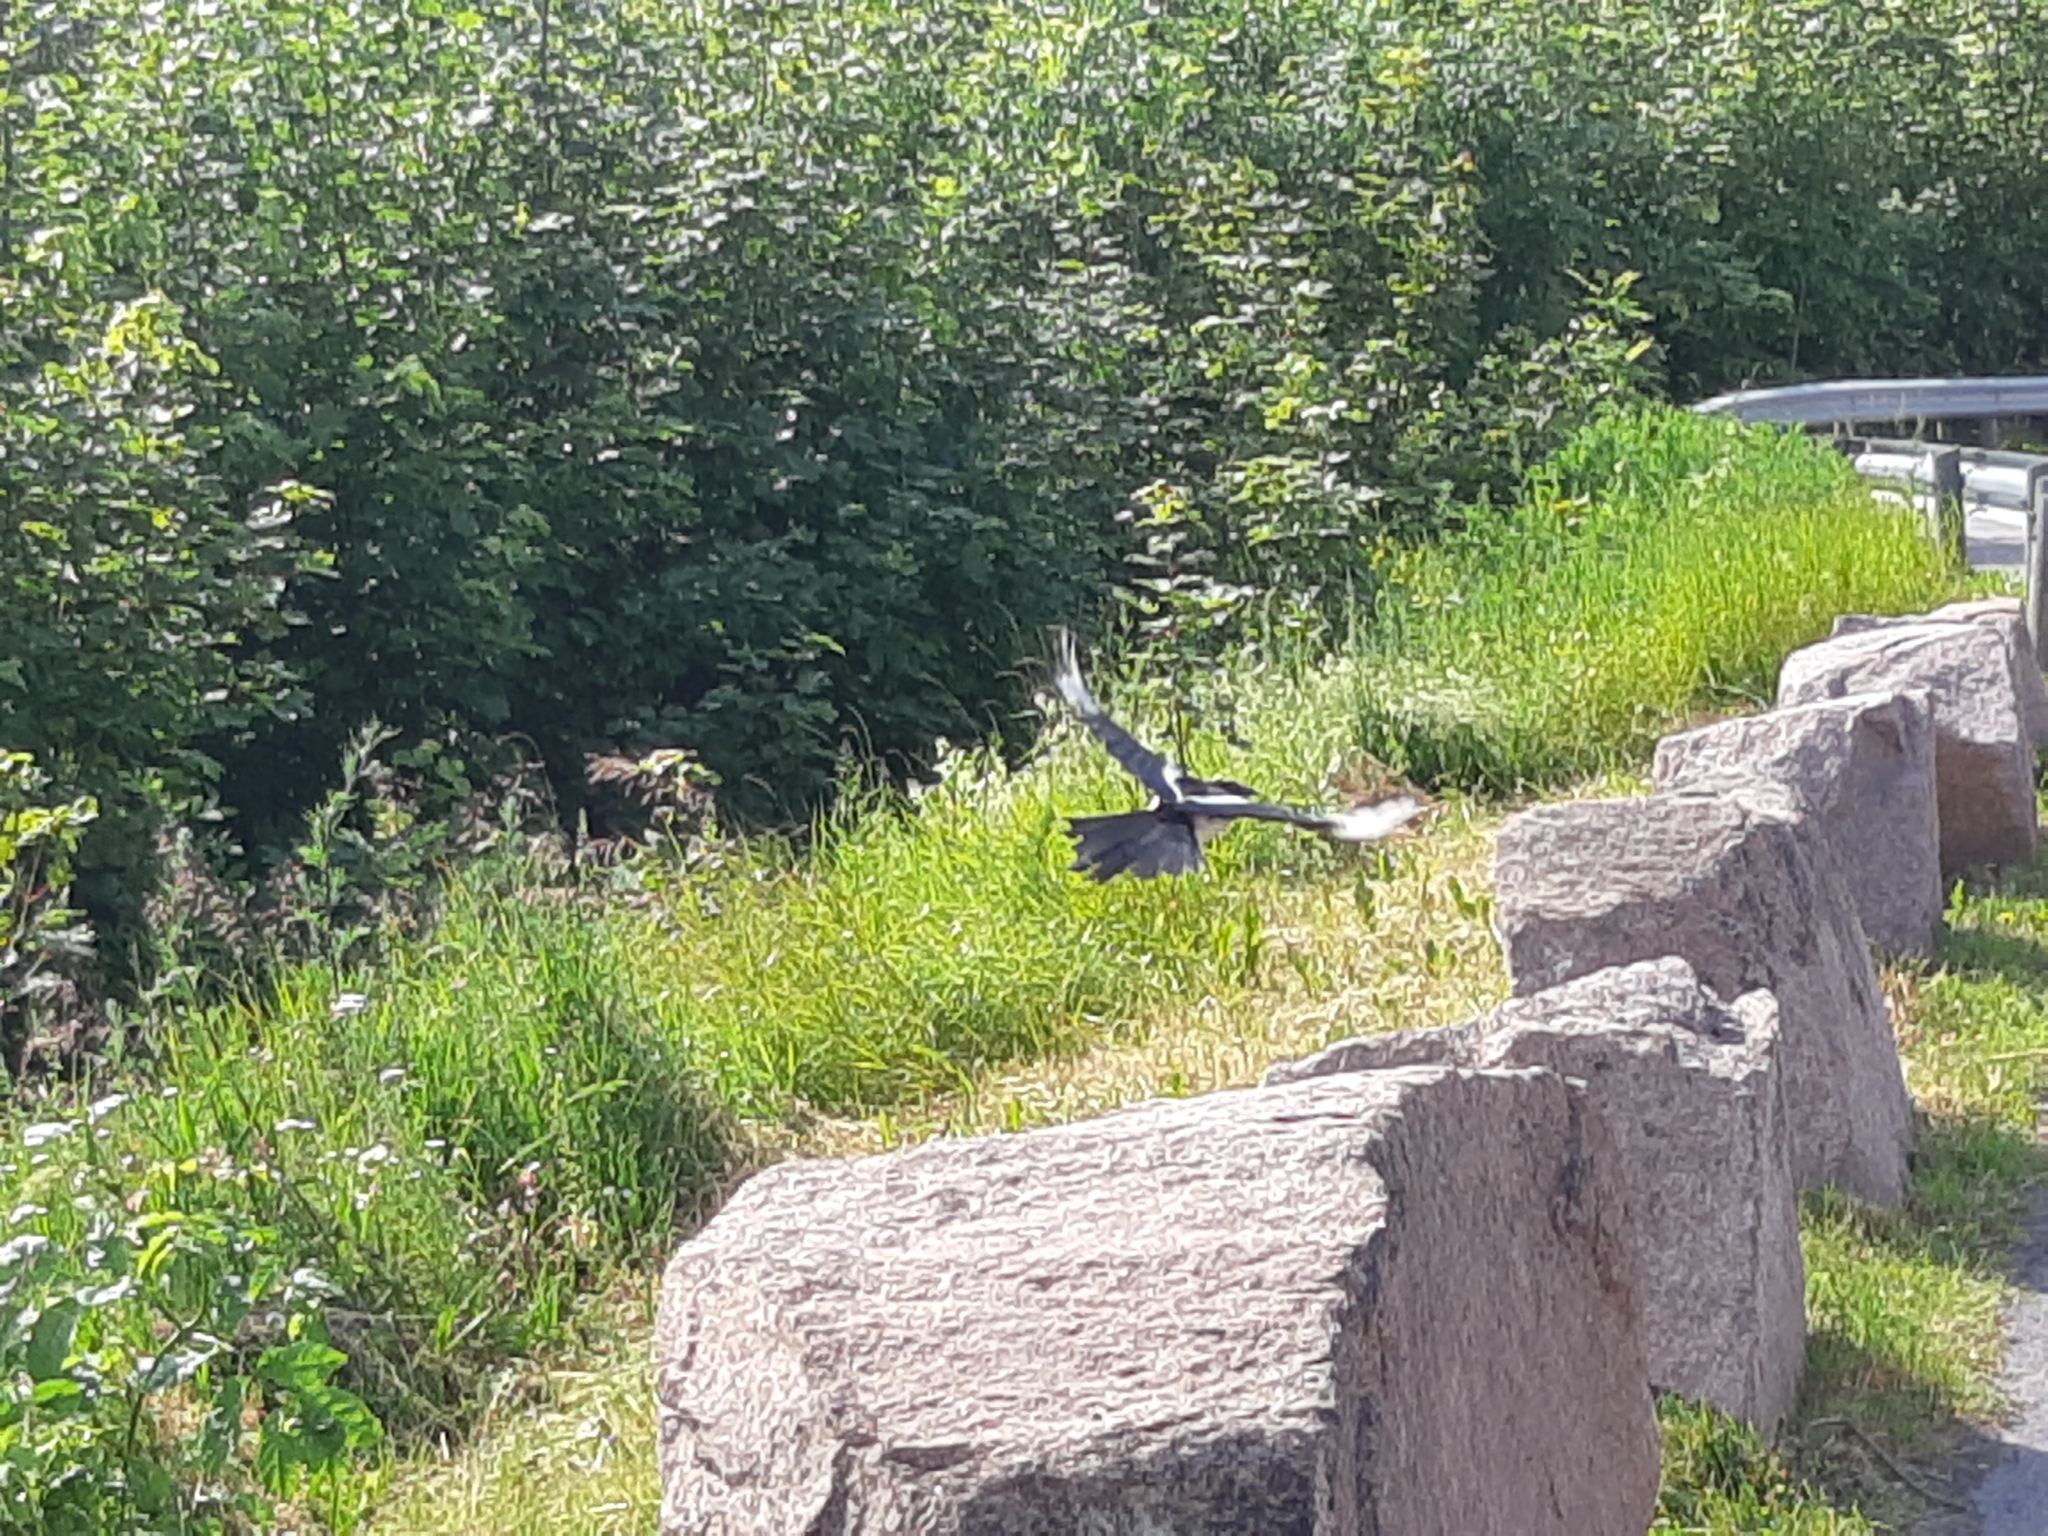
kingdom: Animalia
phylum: Chordata
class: Aves
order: Passeriformes
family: Corvidae
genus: Pica
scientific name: Pica pica
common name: Eurasian magpie
